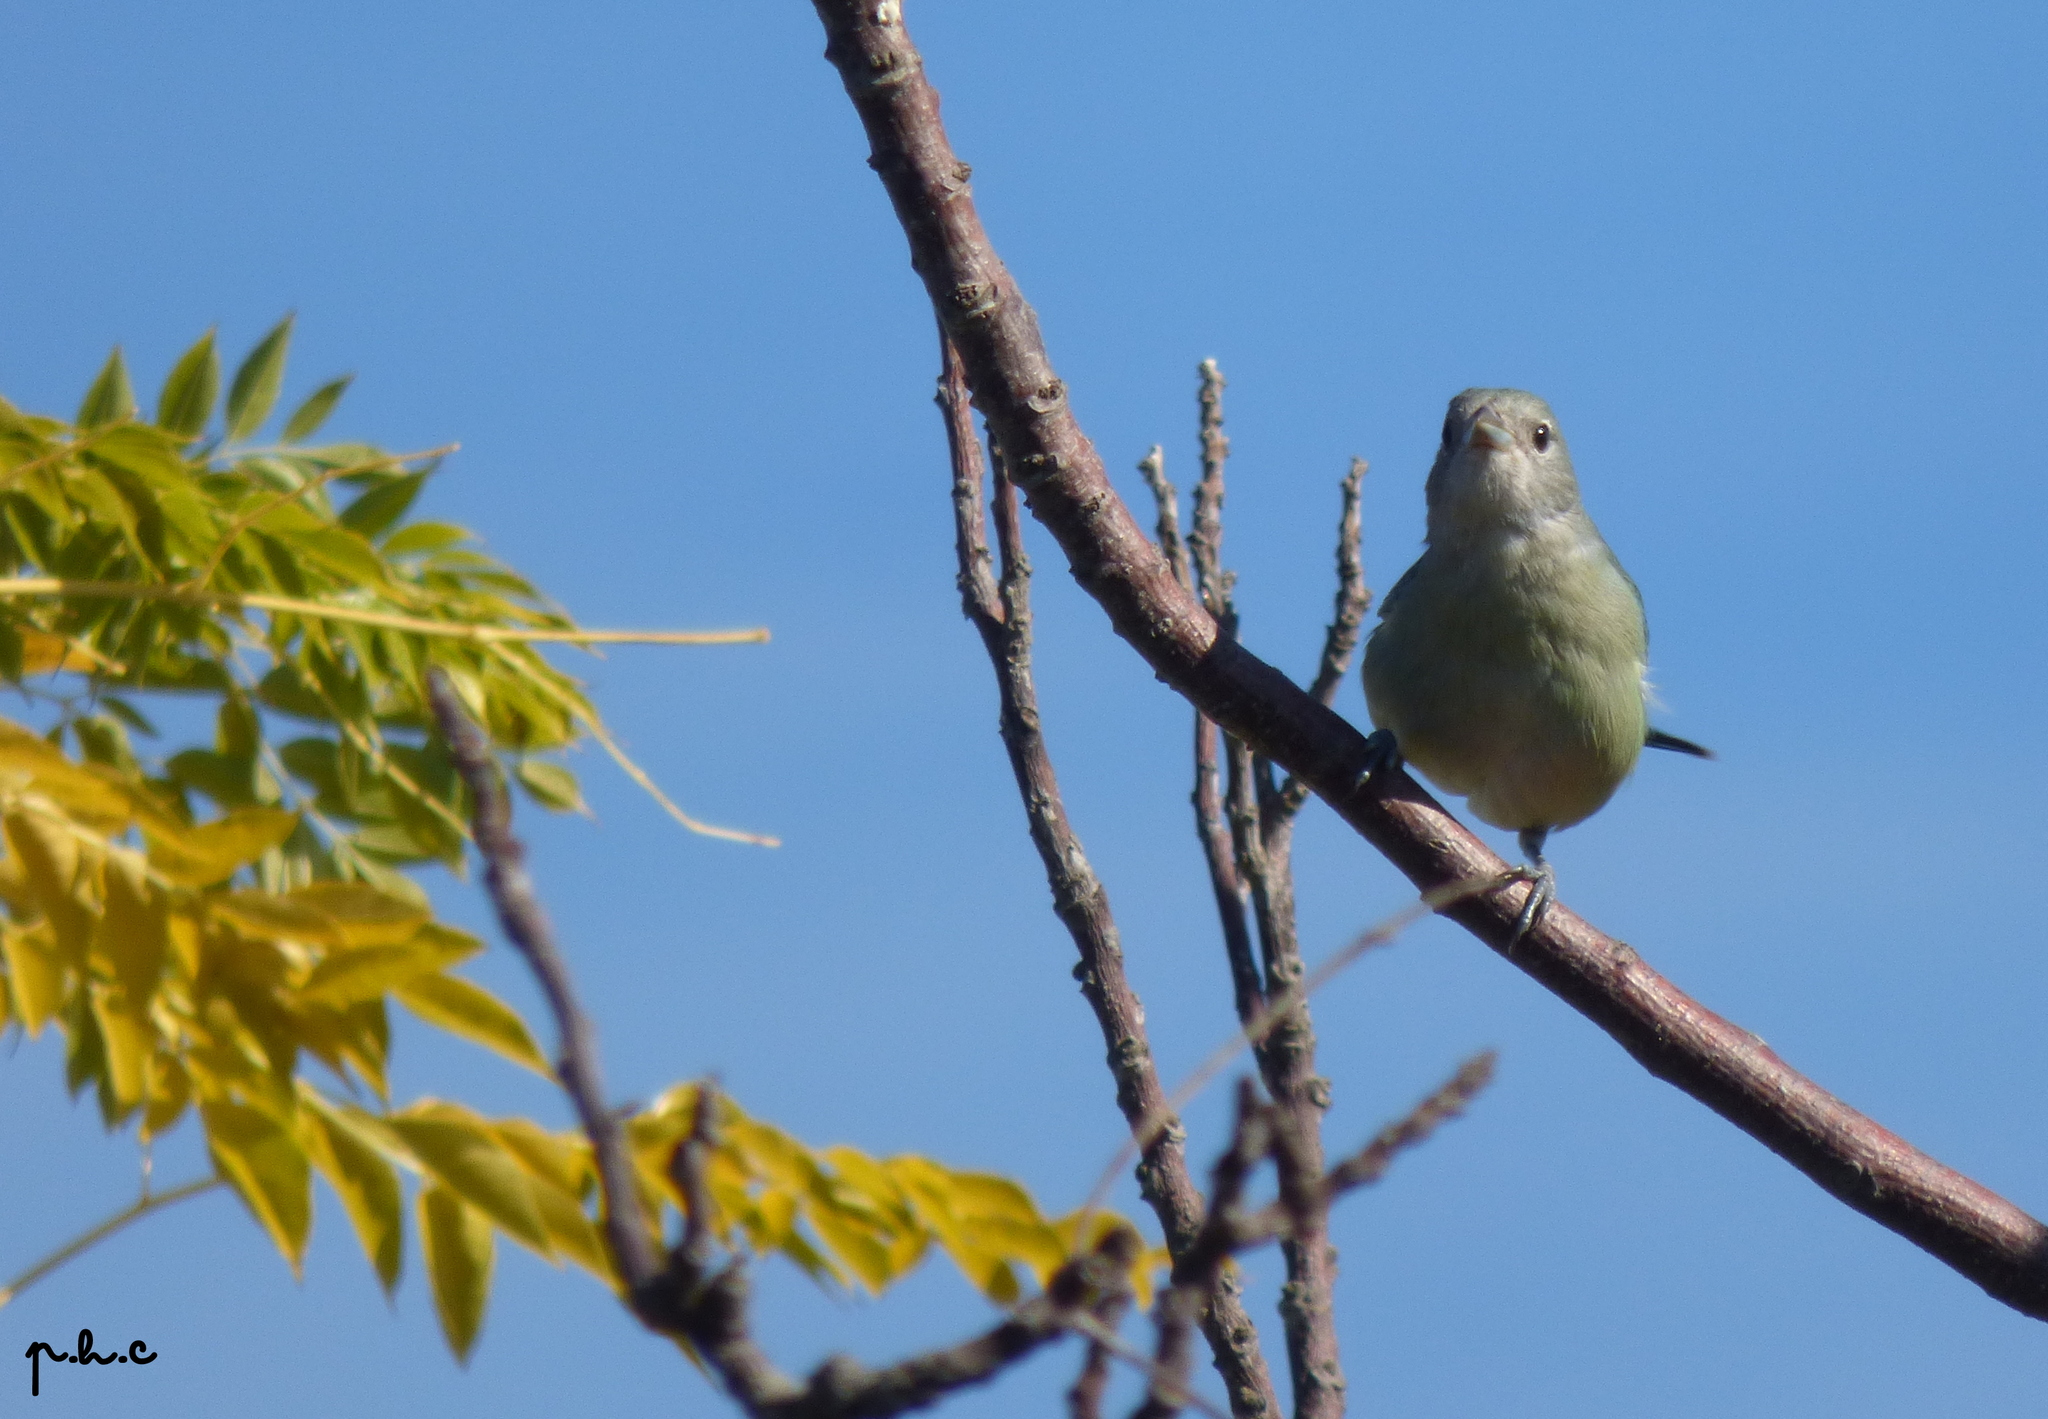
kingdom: Animalia
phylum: Chordata
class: Aves
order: Passeriformes
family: Thraupidae
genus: Thraupis
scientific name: Thraupis sayaca
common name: Sayaca tanager
